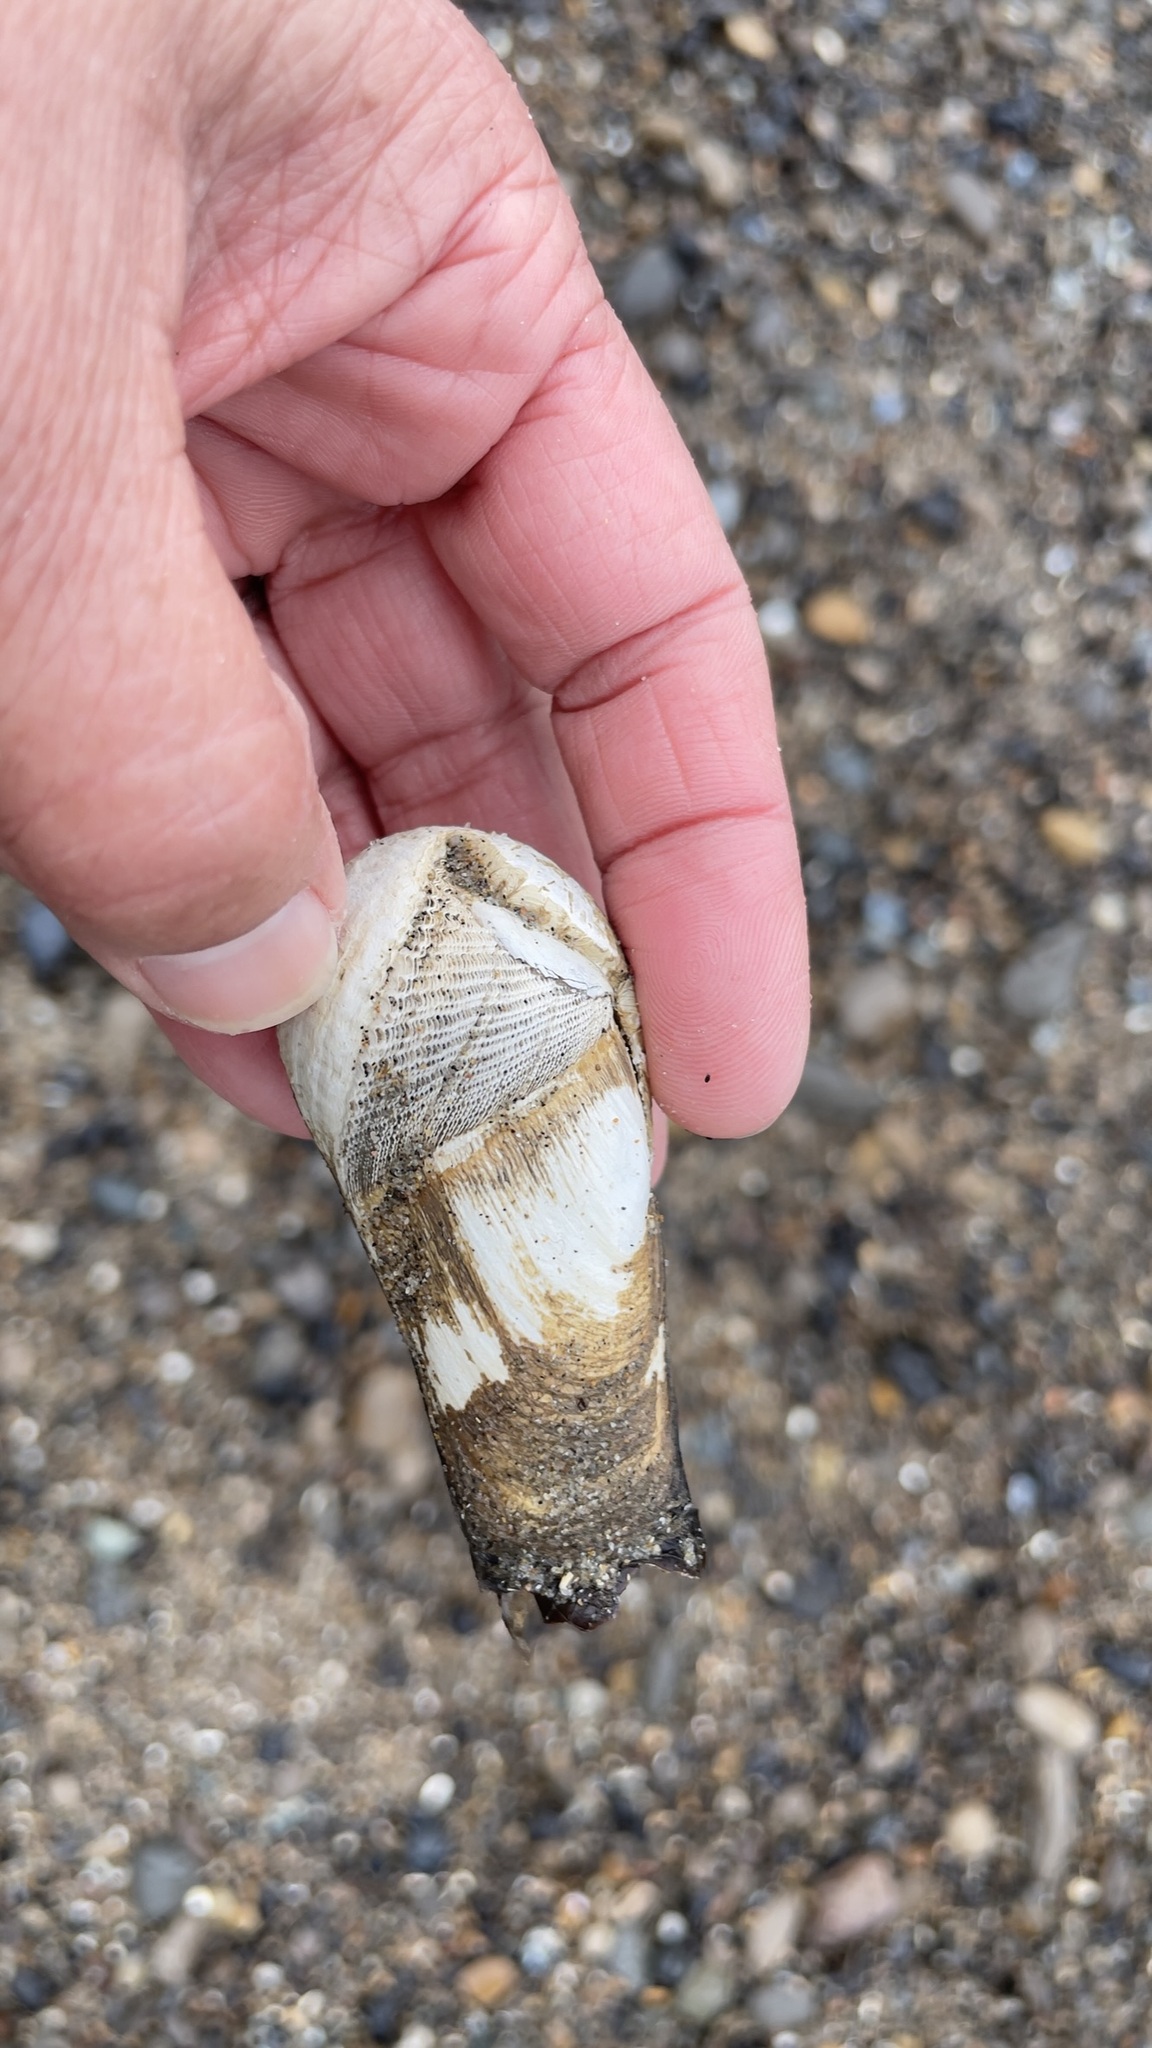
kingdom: Animalia
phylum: Mollusca
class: Bivalvia
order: Myida
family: Pholadidae
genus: Penitella
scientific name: Penitella penita
